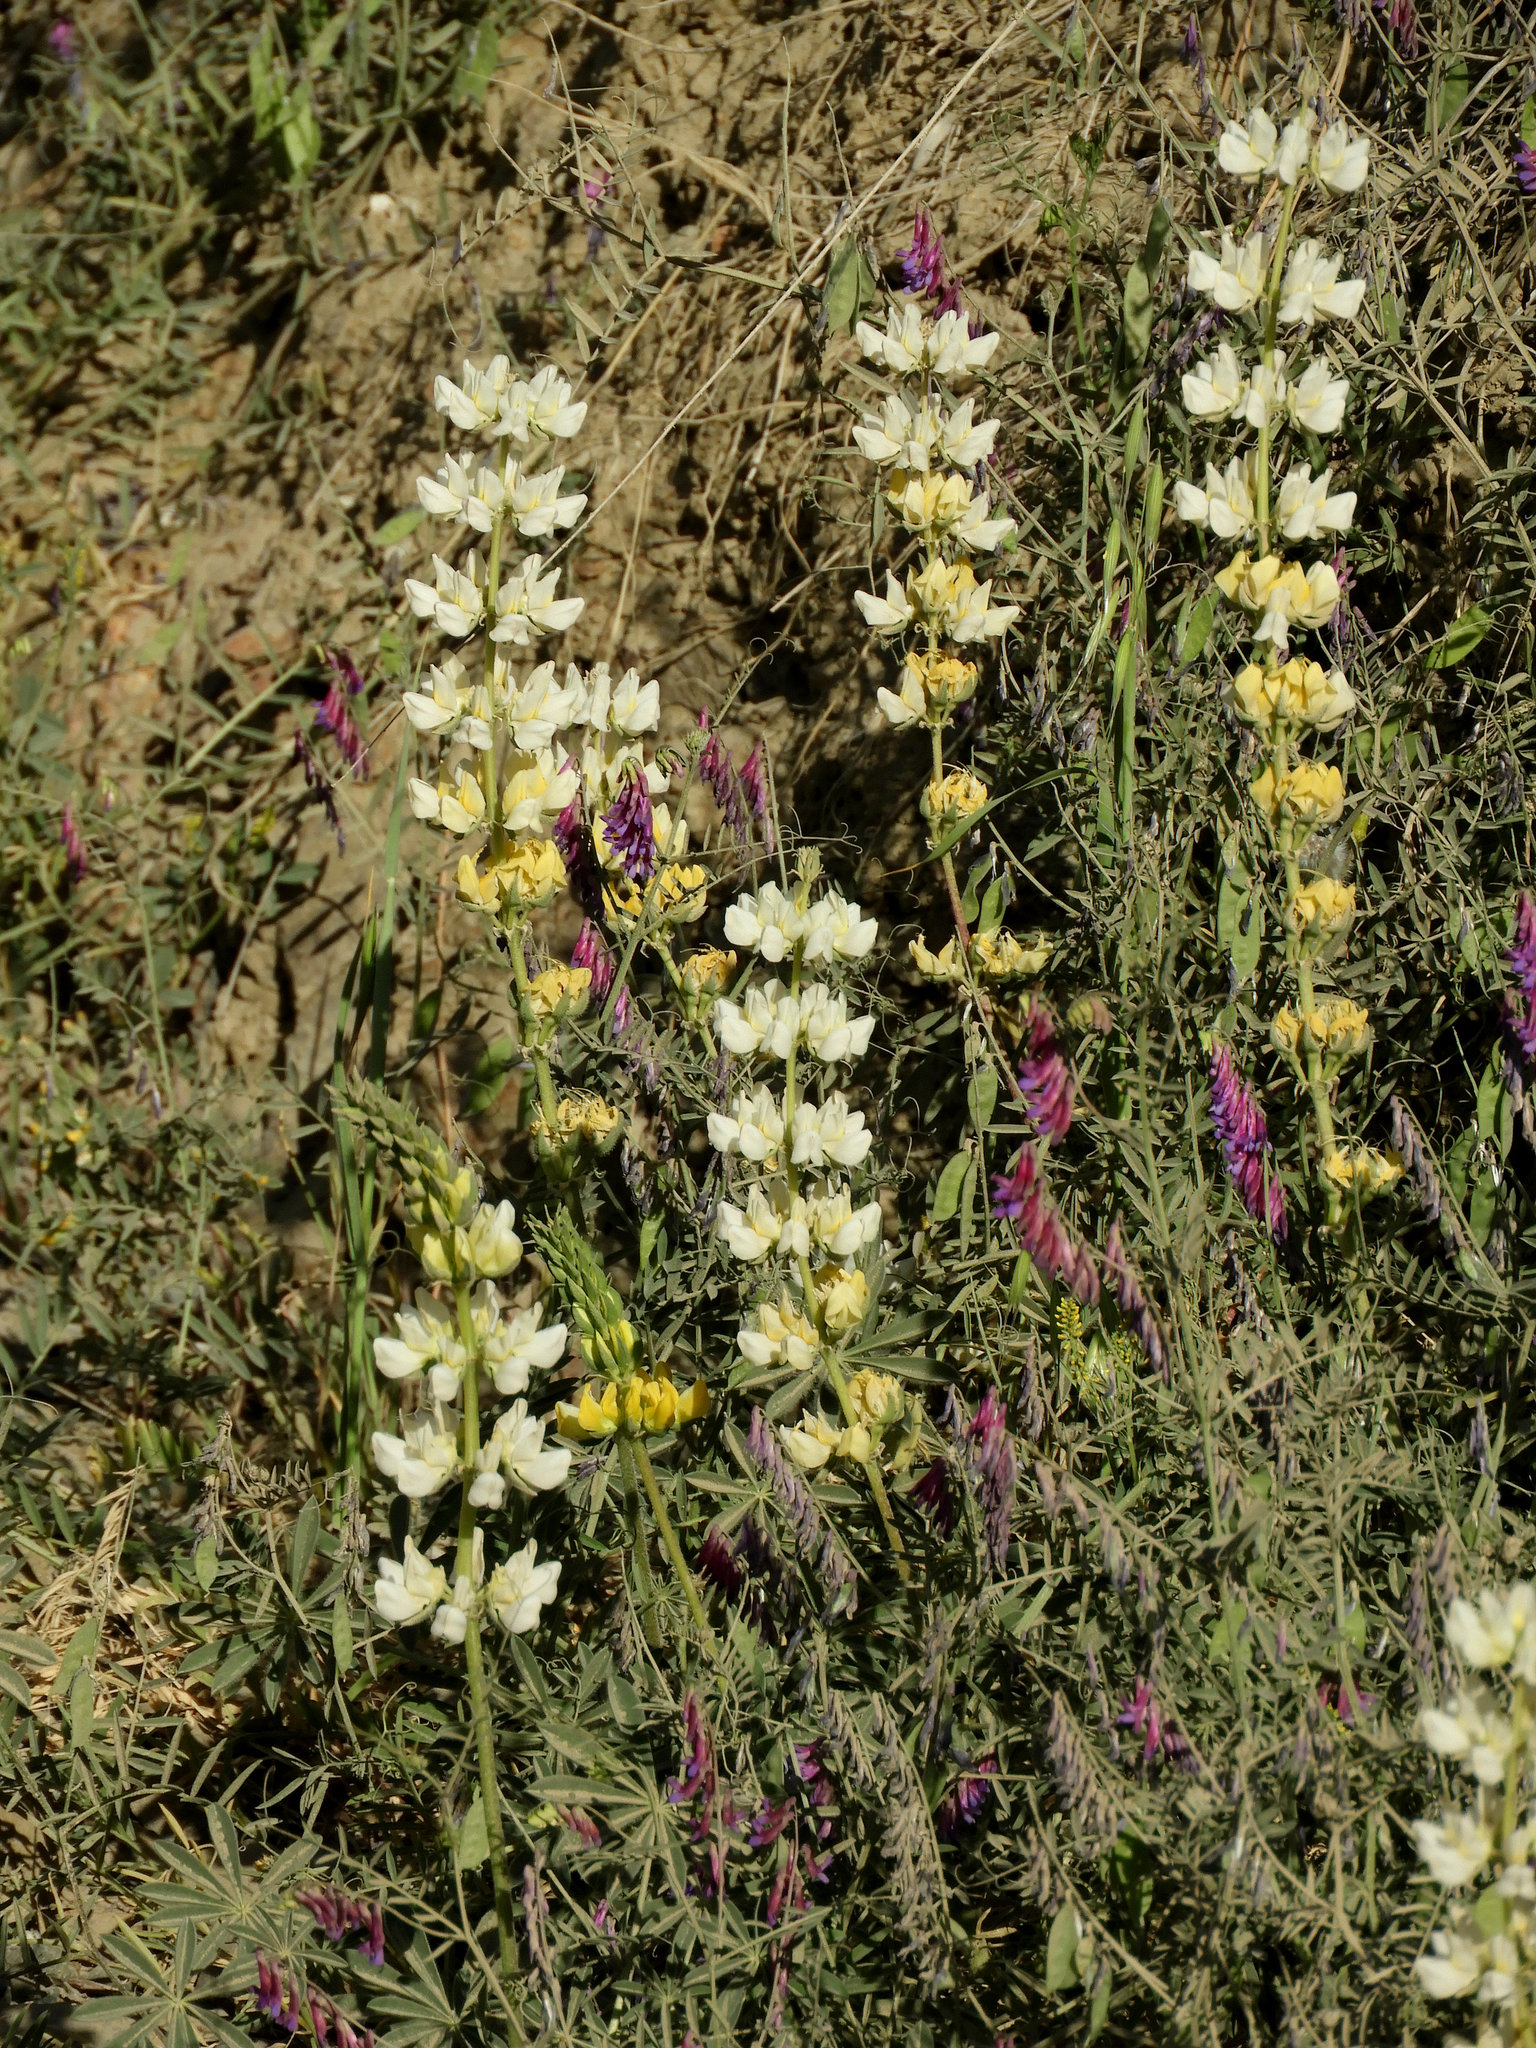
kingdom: Plantae
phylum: Tracheophyta
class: Magnoliopsida
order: Fabales
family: Fabaceae
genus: Lupinus
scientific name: Lupinus microcarpus
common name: Chick lupine
